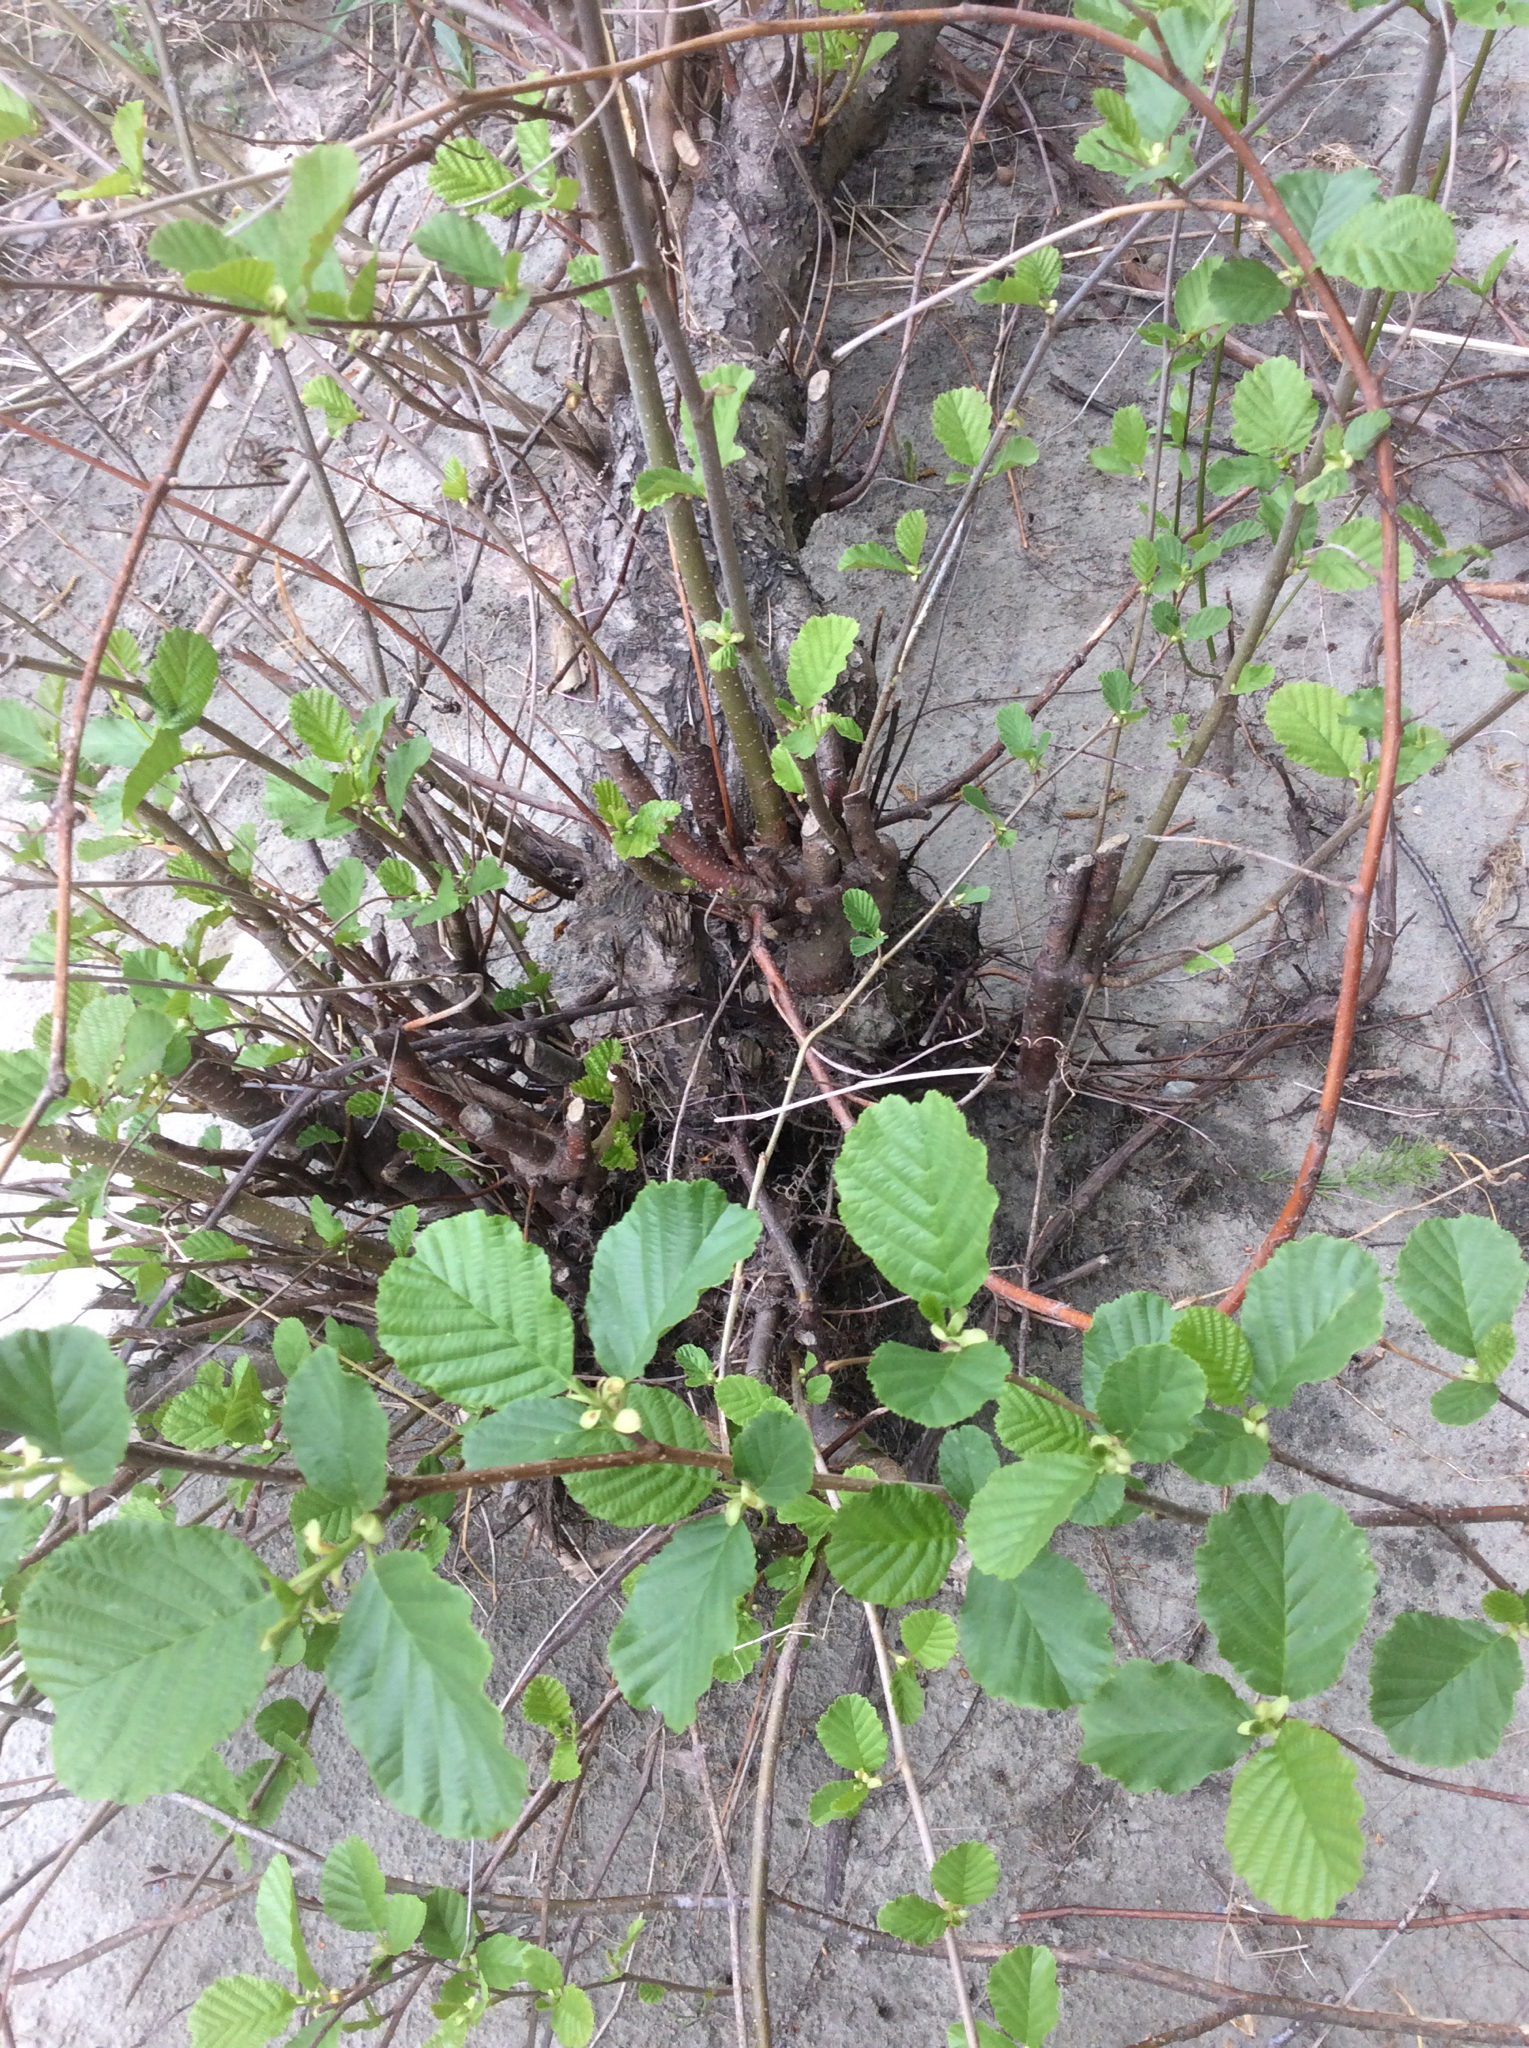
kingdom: Plantae
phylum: Tracheophyta
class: Magnoliopsida
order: Fagales
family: Betulaceae
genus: Alnus
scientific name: Alnus glutinosa
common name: Black alder
